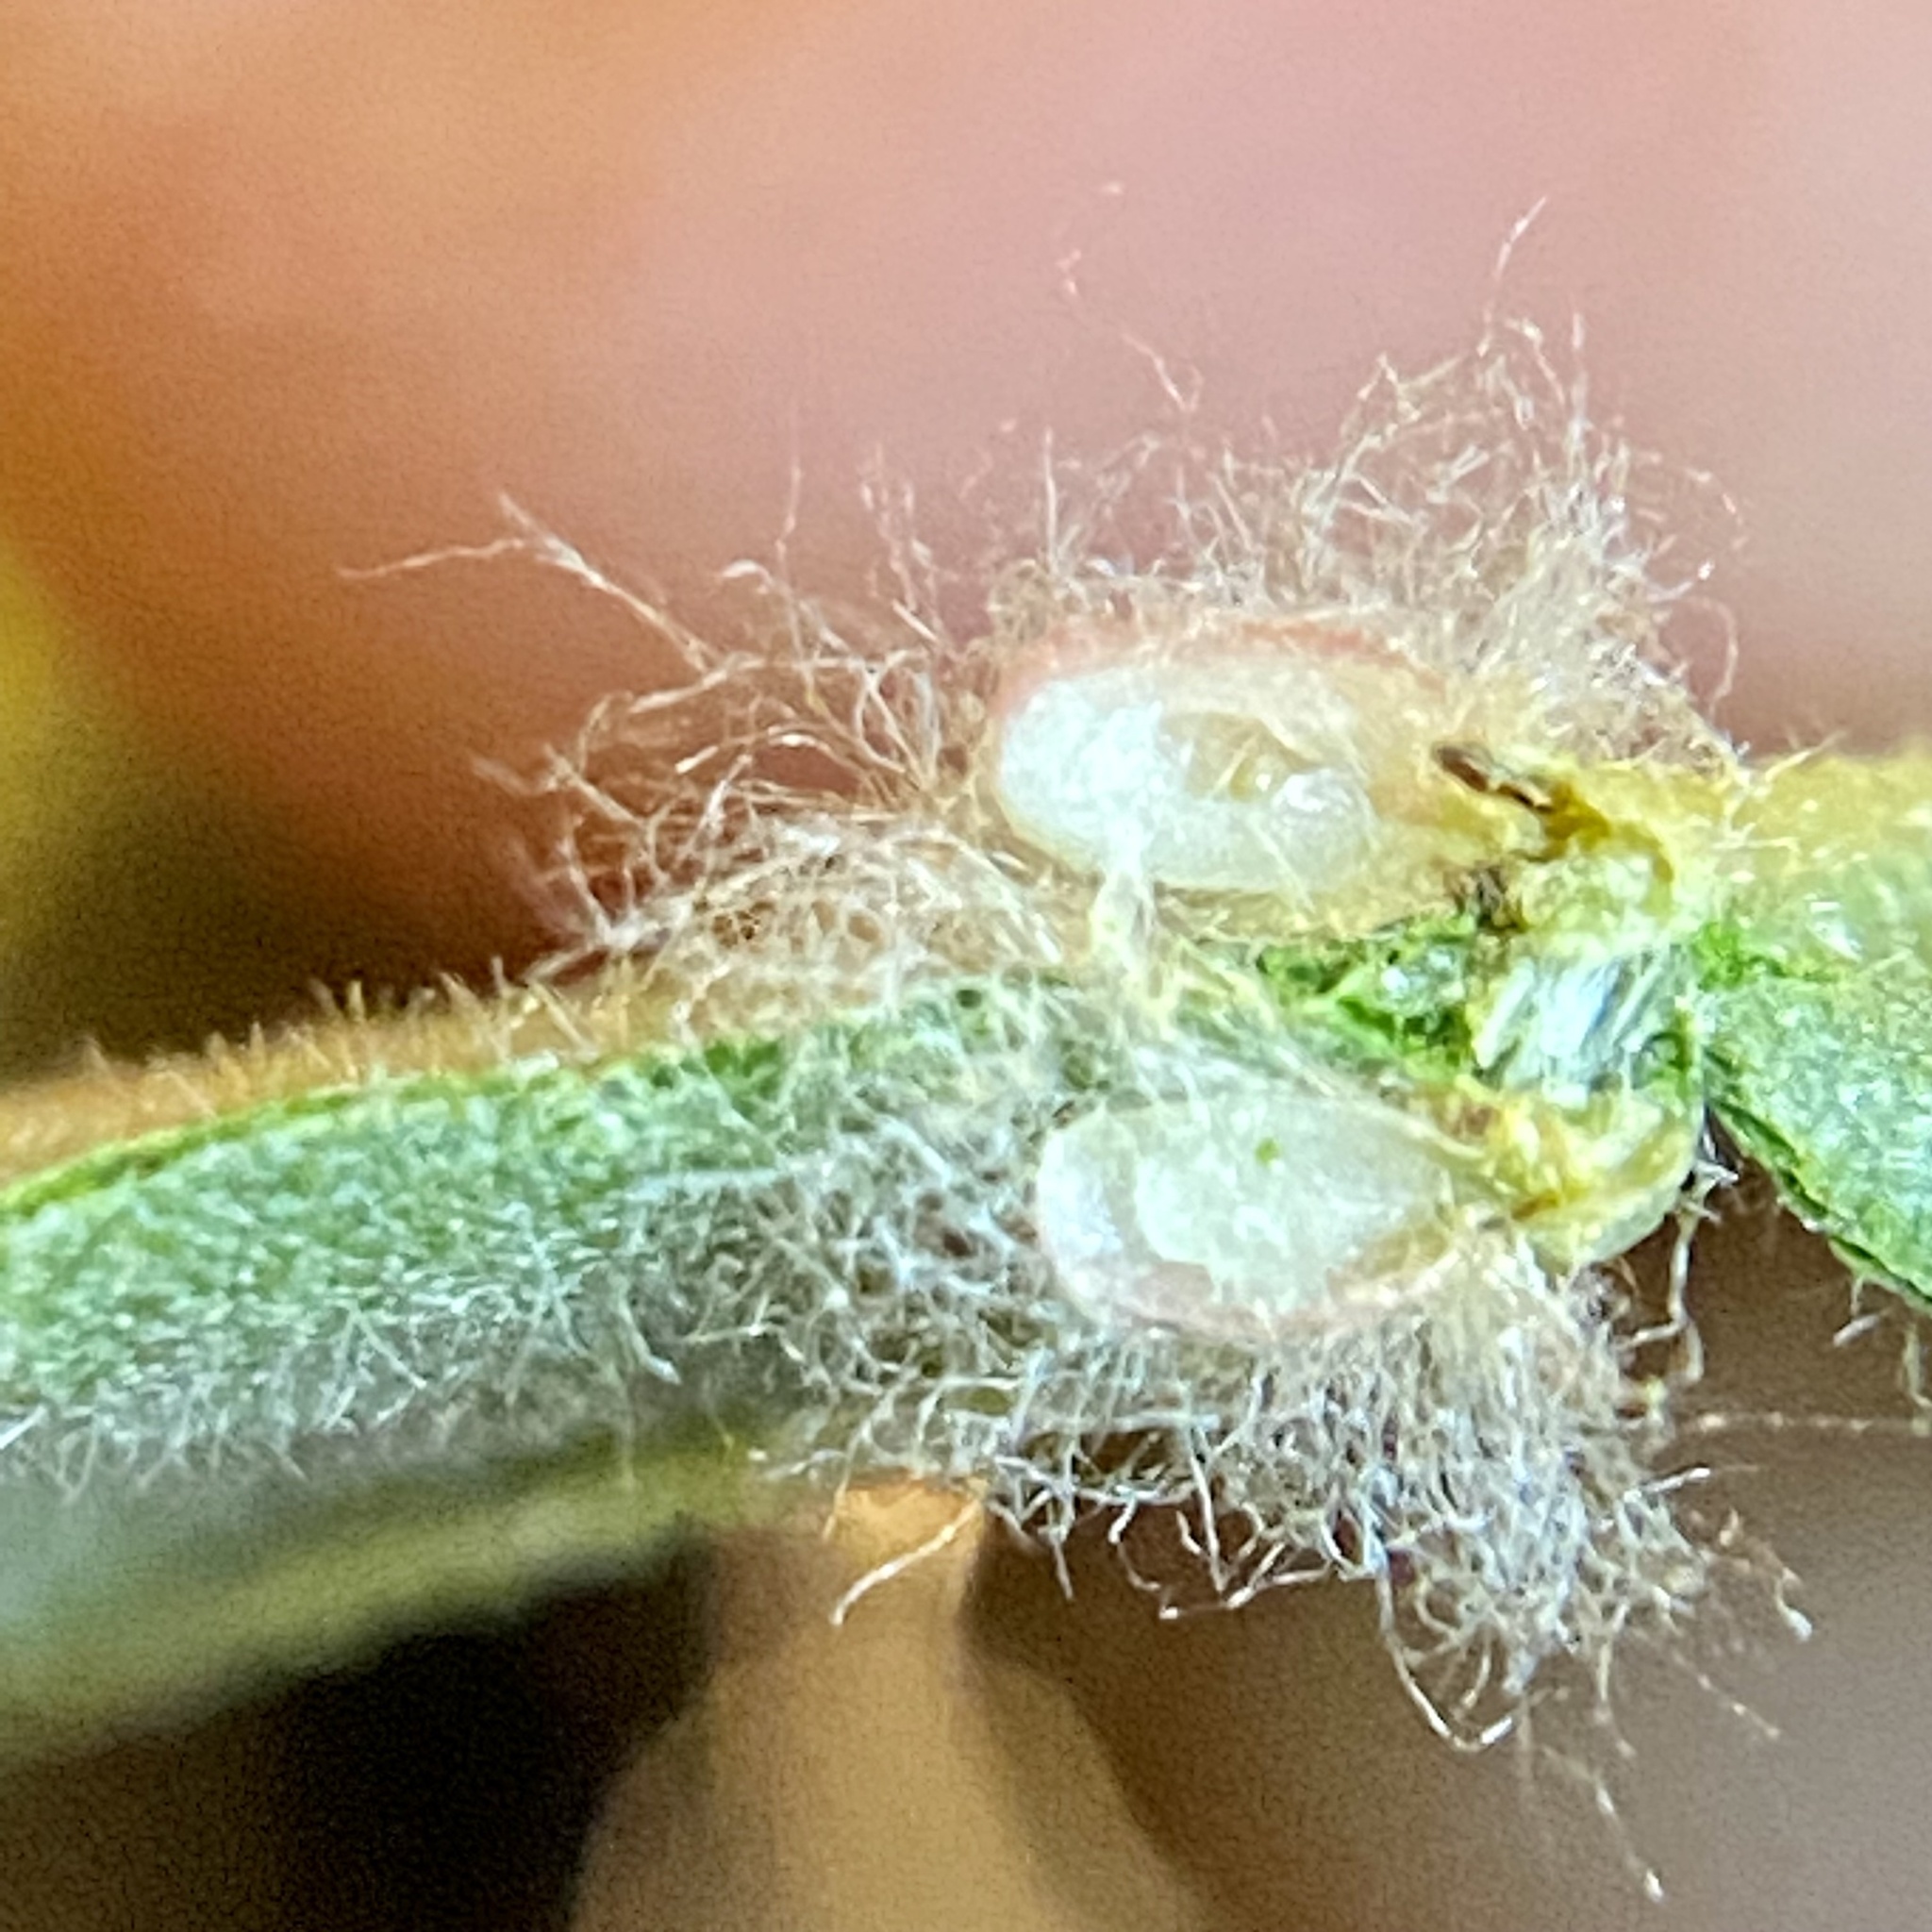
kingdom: Animalia
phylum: Arthropoda
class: Insecta
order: Hymenoptera
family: Cynipidae
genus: Andricus
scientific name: Andricus Druon ignotum
